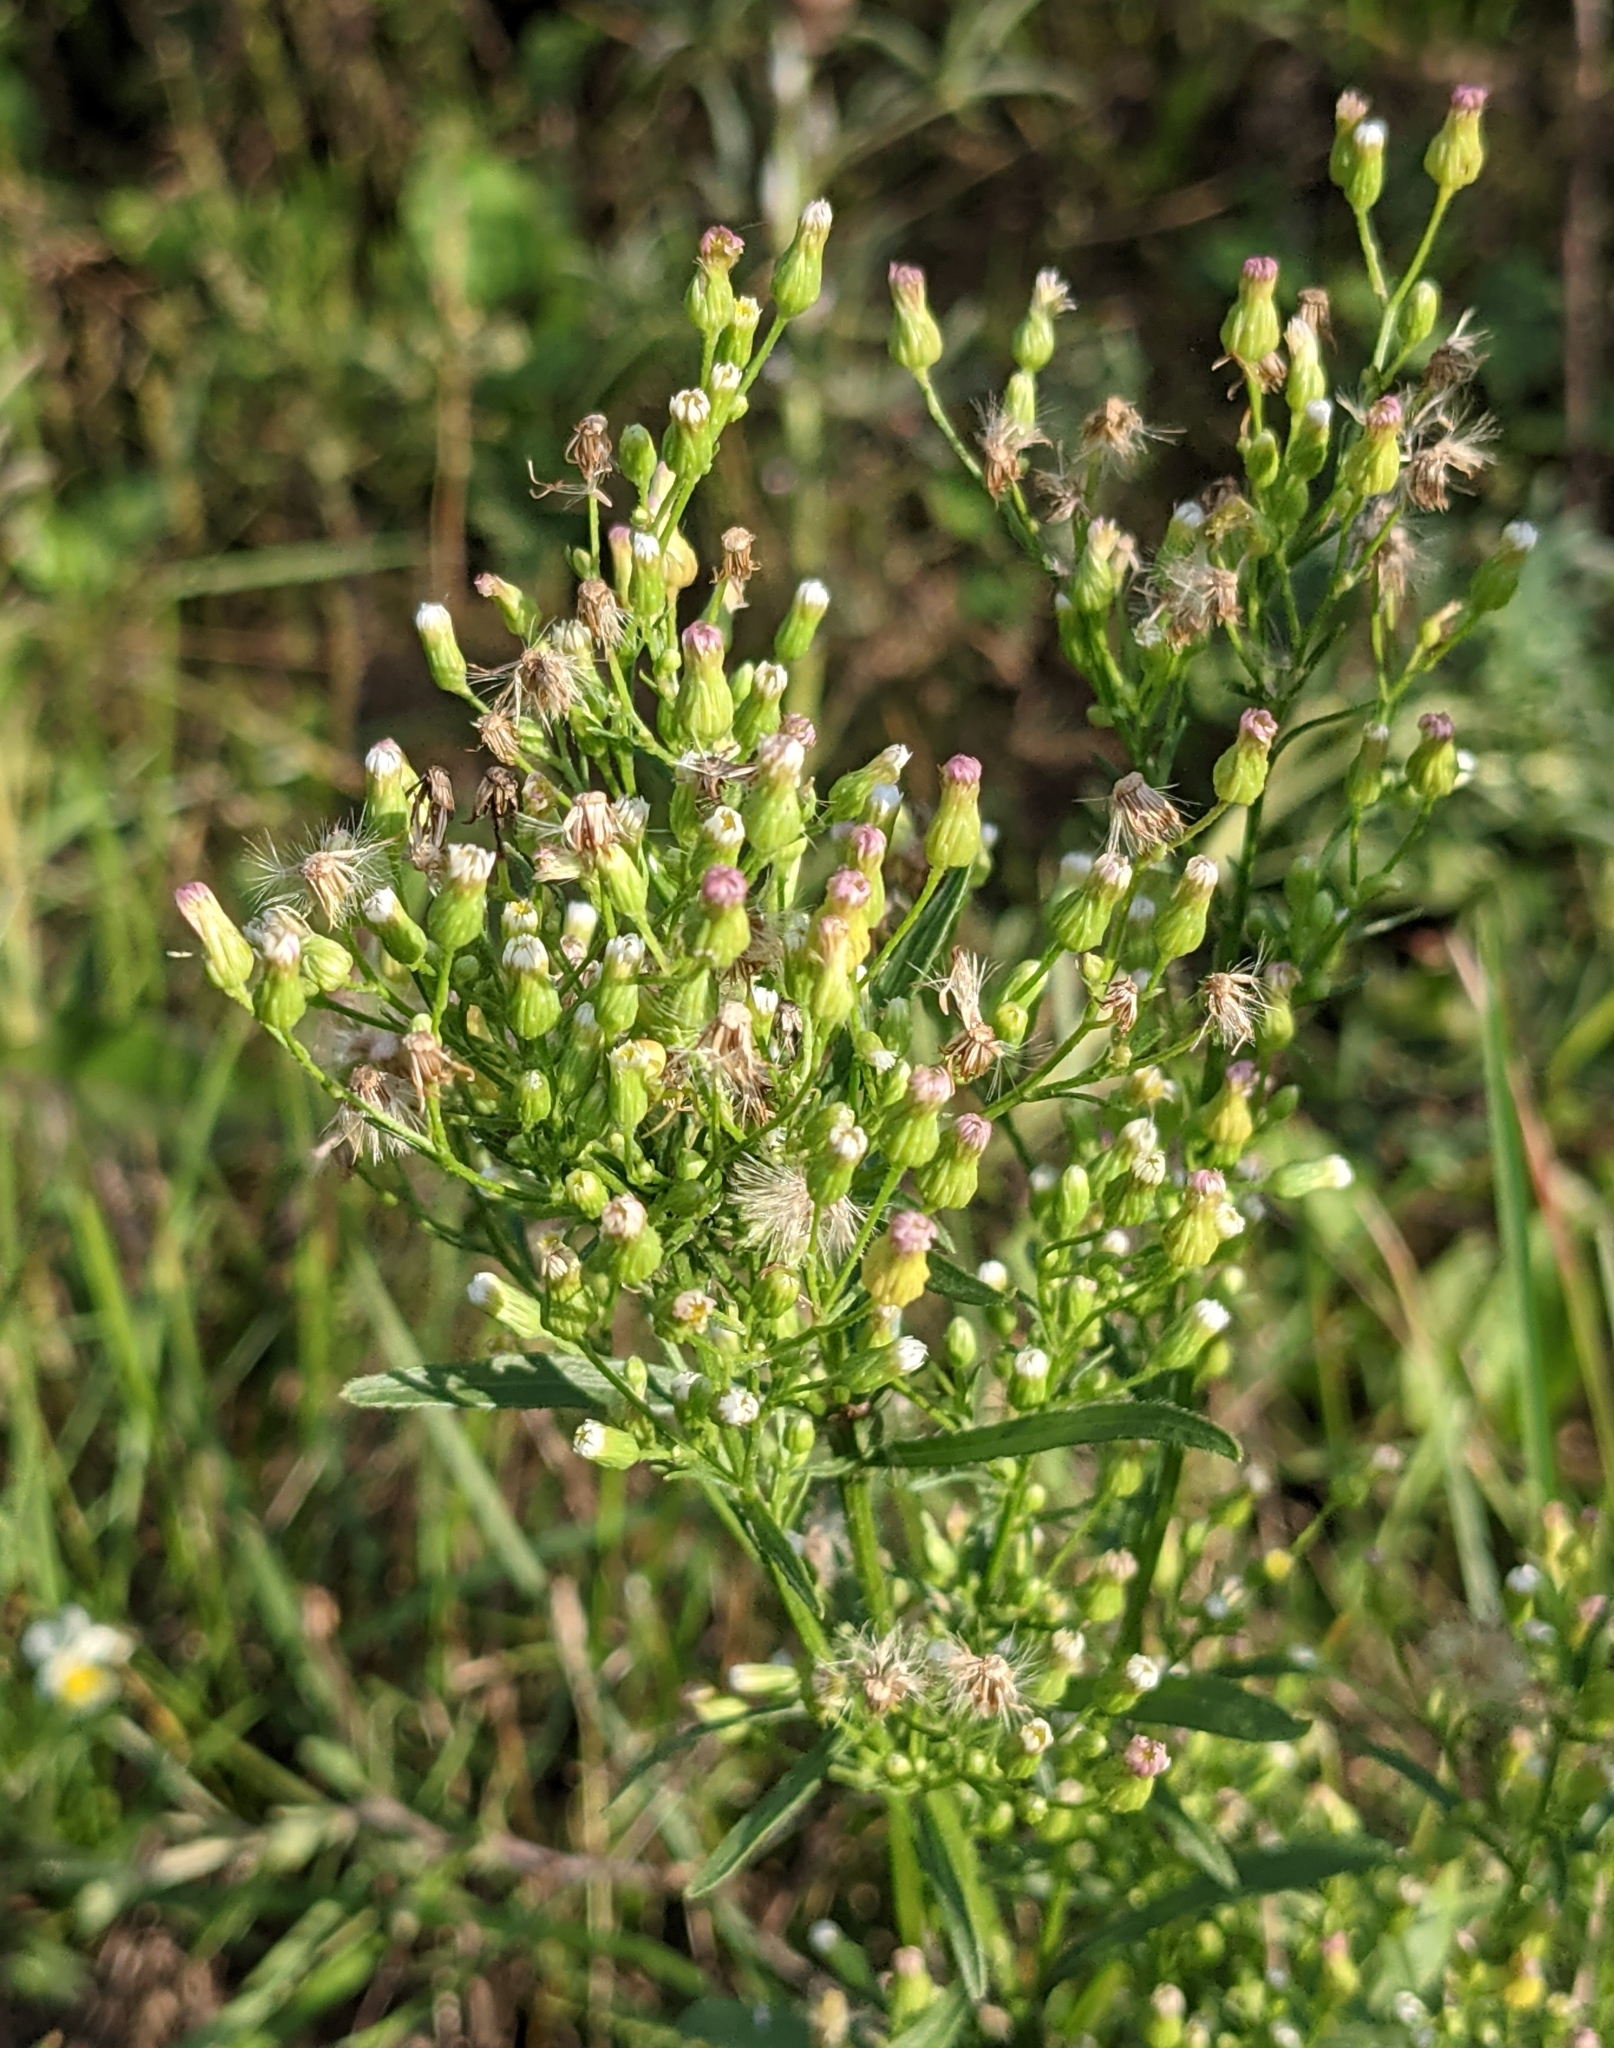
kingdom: Plantae
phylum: Tracheophyta
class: Magnoliopsida
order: Asterales
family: Asteraceae
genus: Erigeron
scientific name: Erigeron canadensis
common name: Canadian fleabane
